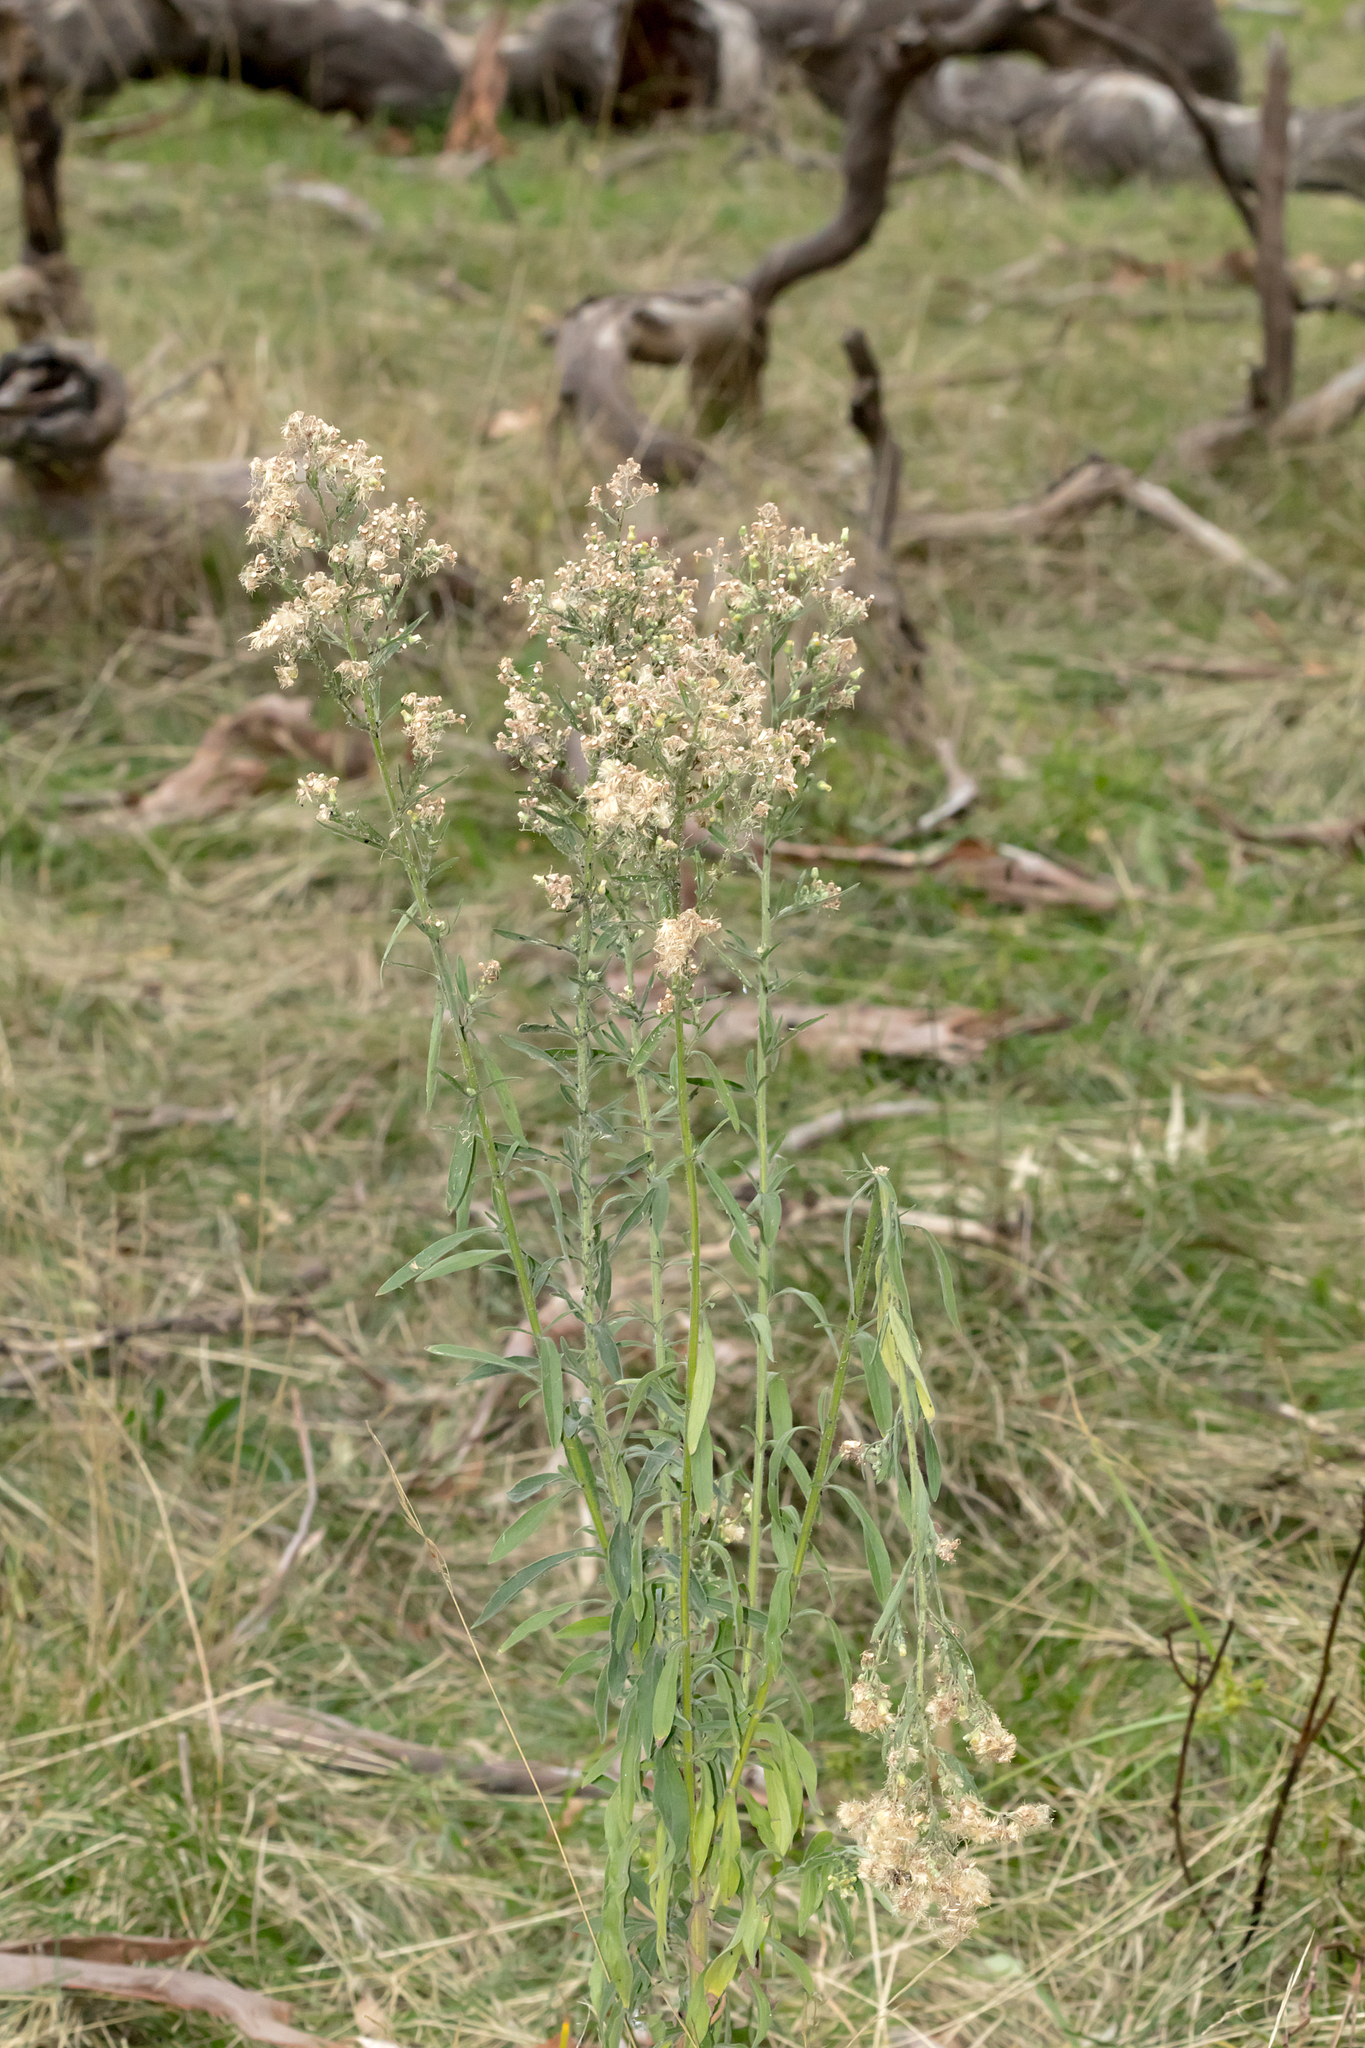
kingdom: Plantae
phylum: Tracheophyta
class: Magnoliopsida
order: Asterales
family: Asteraceae
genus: Erigeron
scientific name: Erigeron sumatrensis
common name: Daisy
